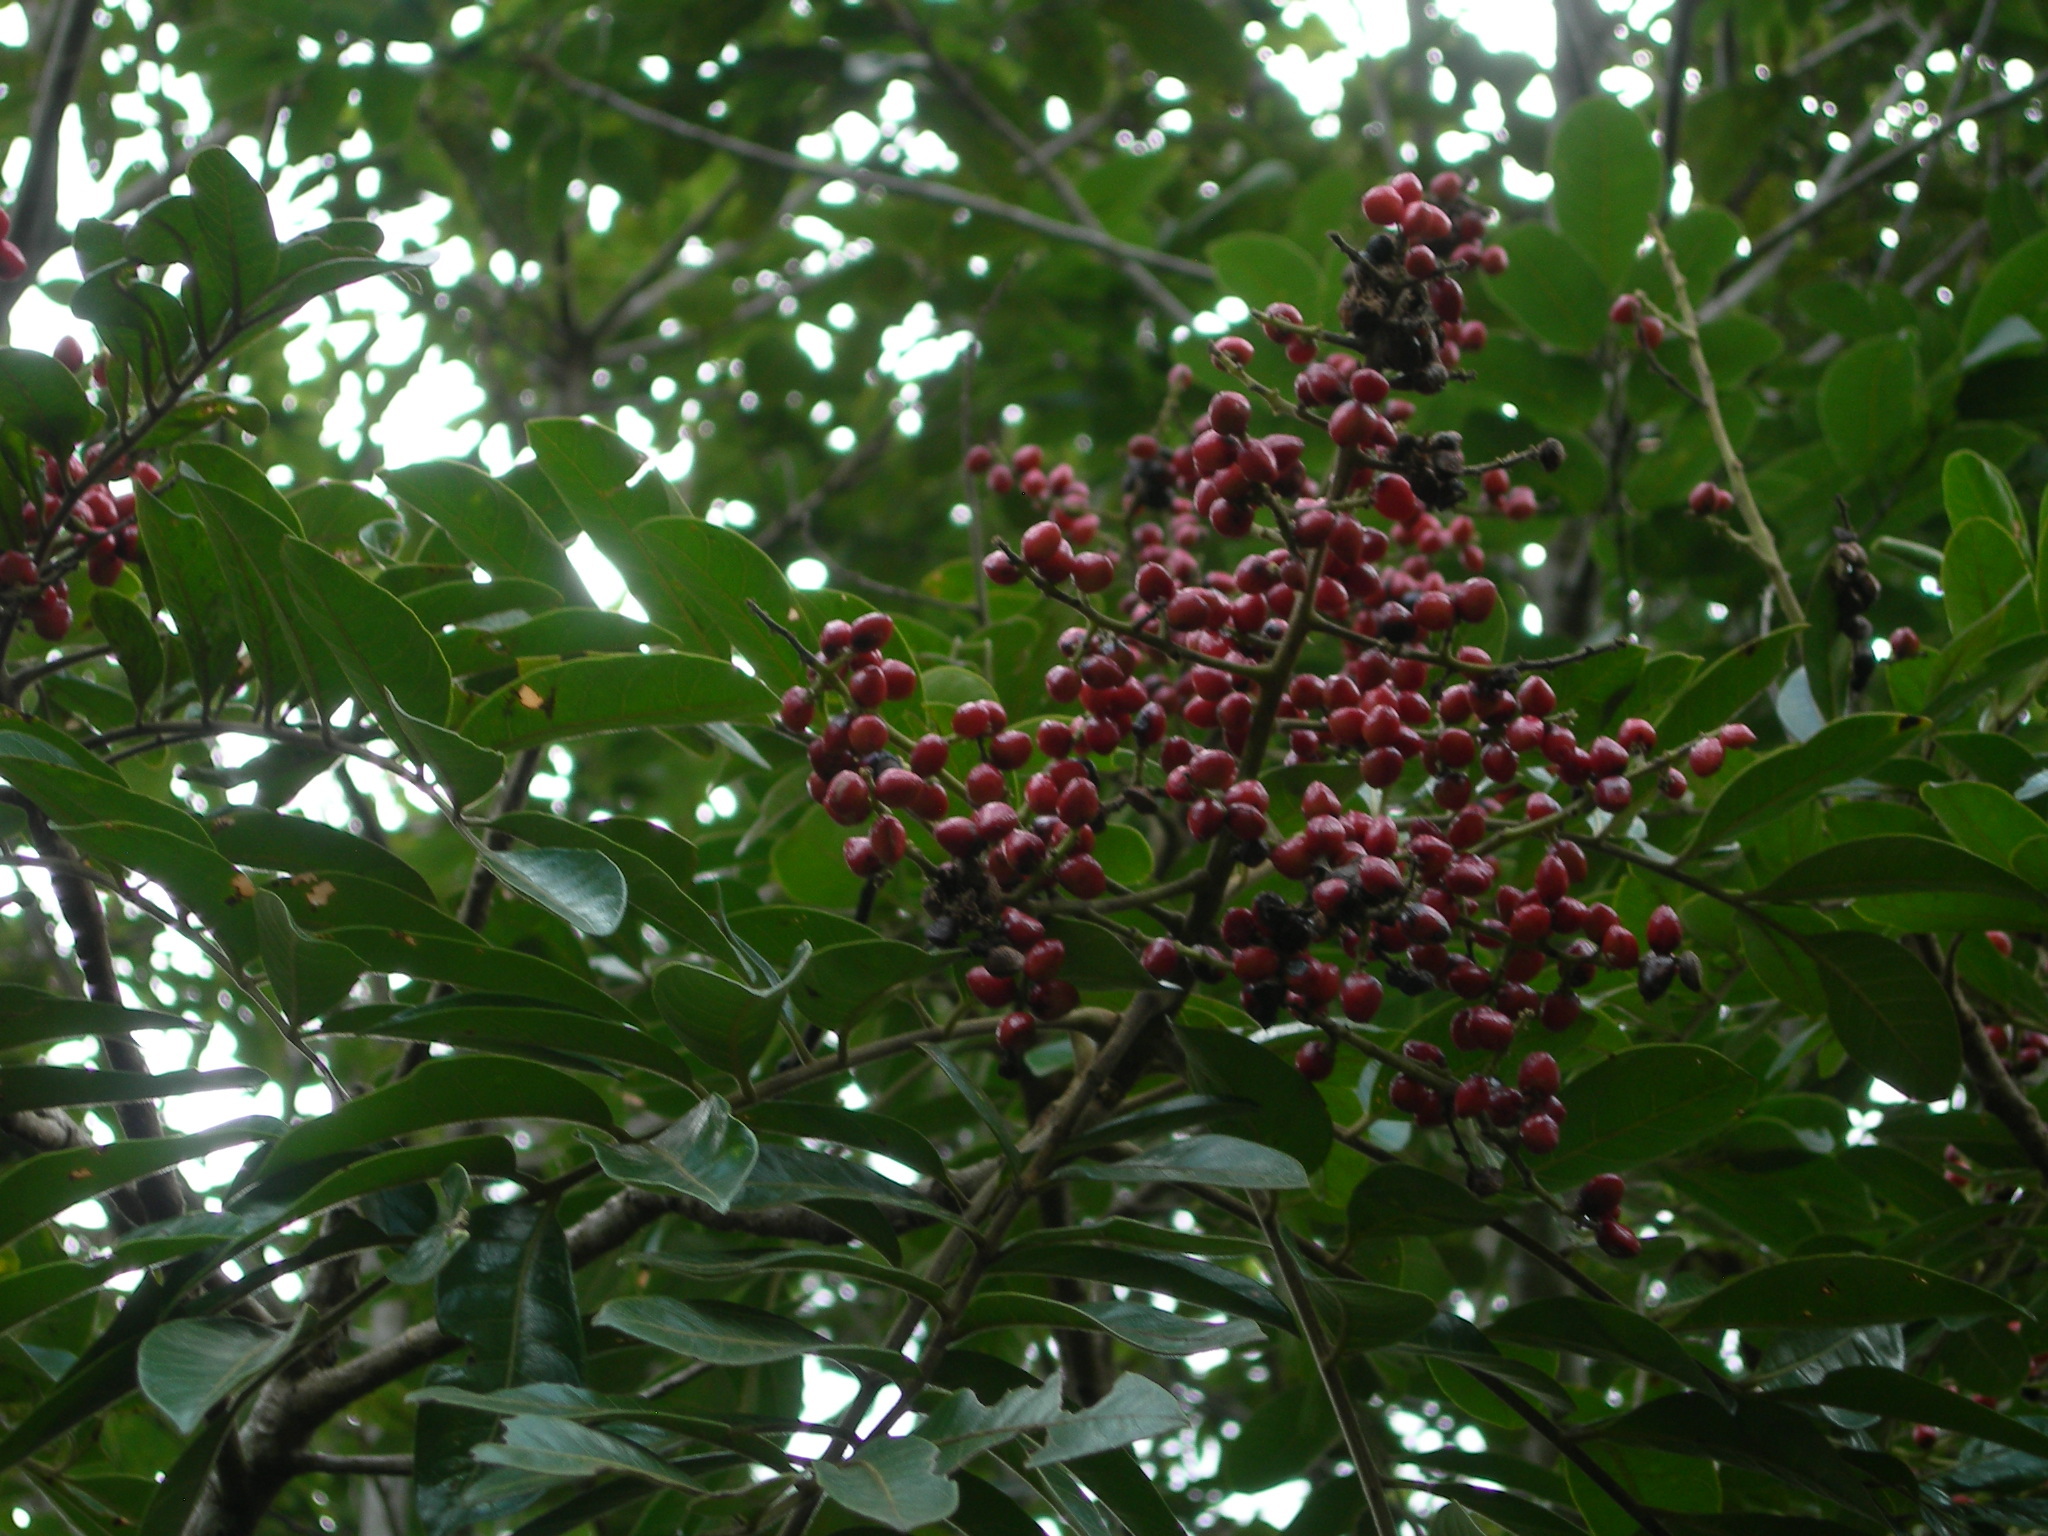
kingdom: Plantae
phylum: Tracheophyta
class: Magnoliopsida
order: Sapindales
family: Anacardiaceae
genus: Mosquitoxylum
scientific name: Mosquitoxylum jamaicense
